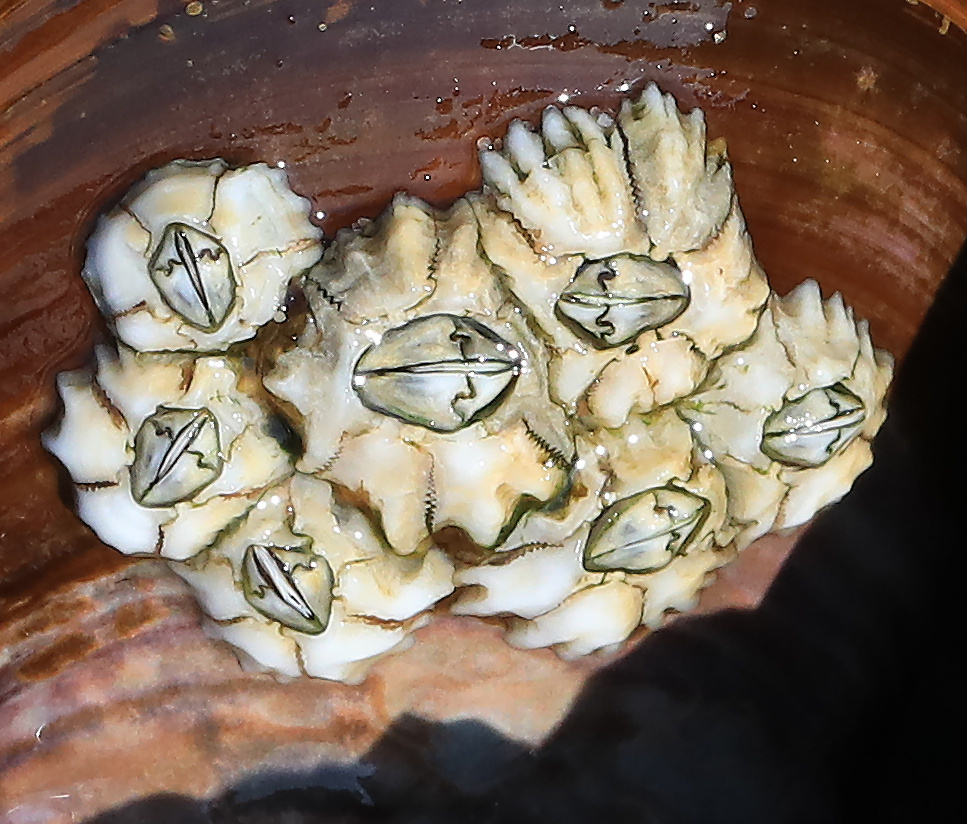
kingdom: Animalia
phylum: Arthropoda
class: Maxillopoda
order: Sessilia
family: Chthamalidae
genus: Chthamalus
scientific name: Chthamalus dentatus
